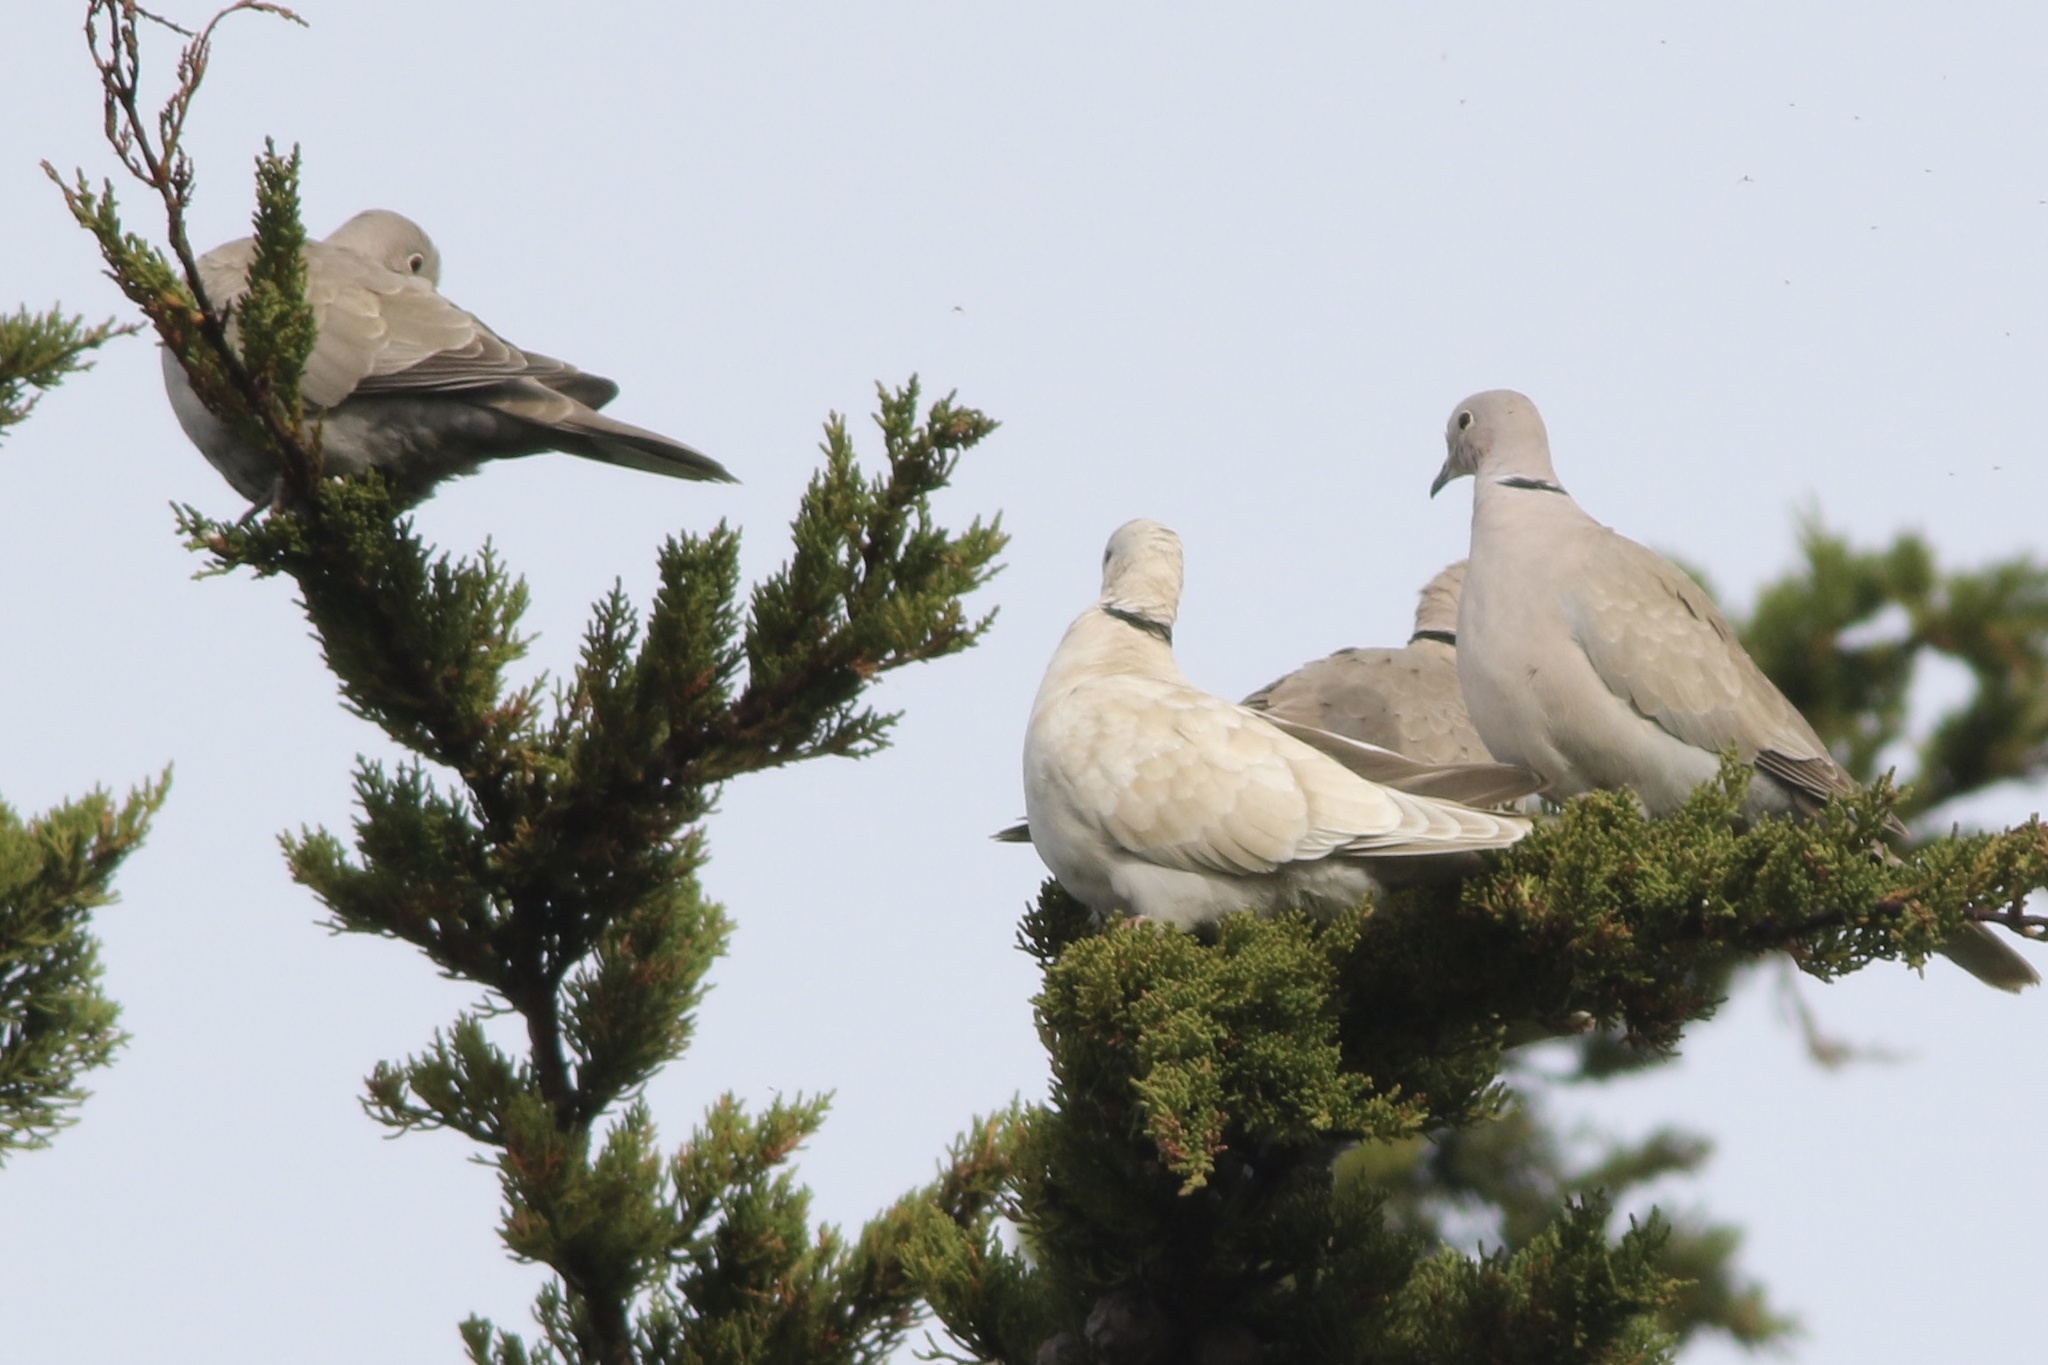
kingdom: Animalia
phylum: Chordata
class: Aves
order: Columbiformes
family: Columbidae
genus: Streptopelia
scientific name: Streptopelia decaocto
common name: Eurasian collared dove
